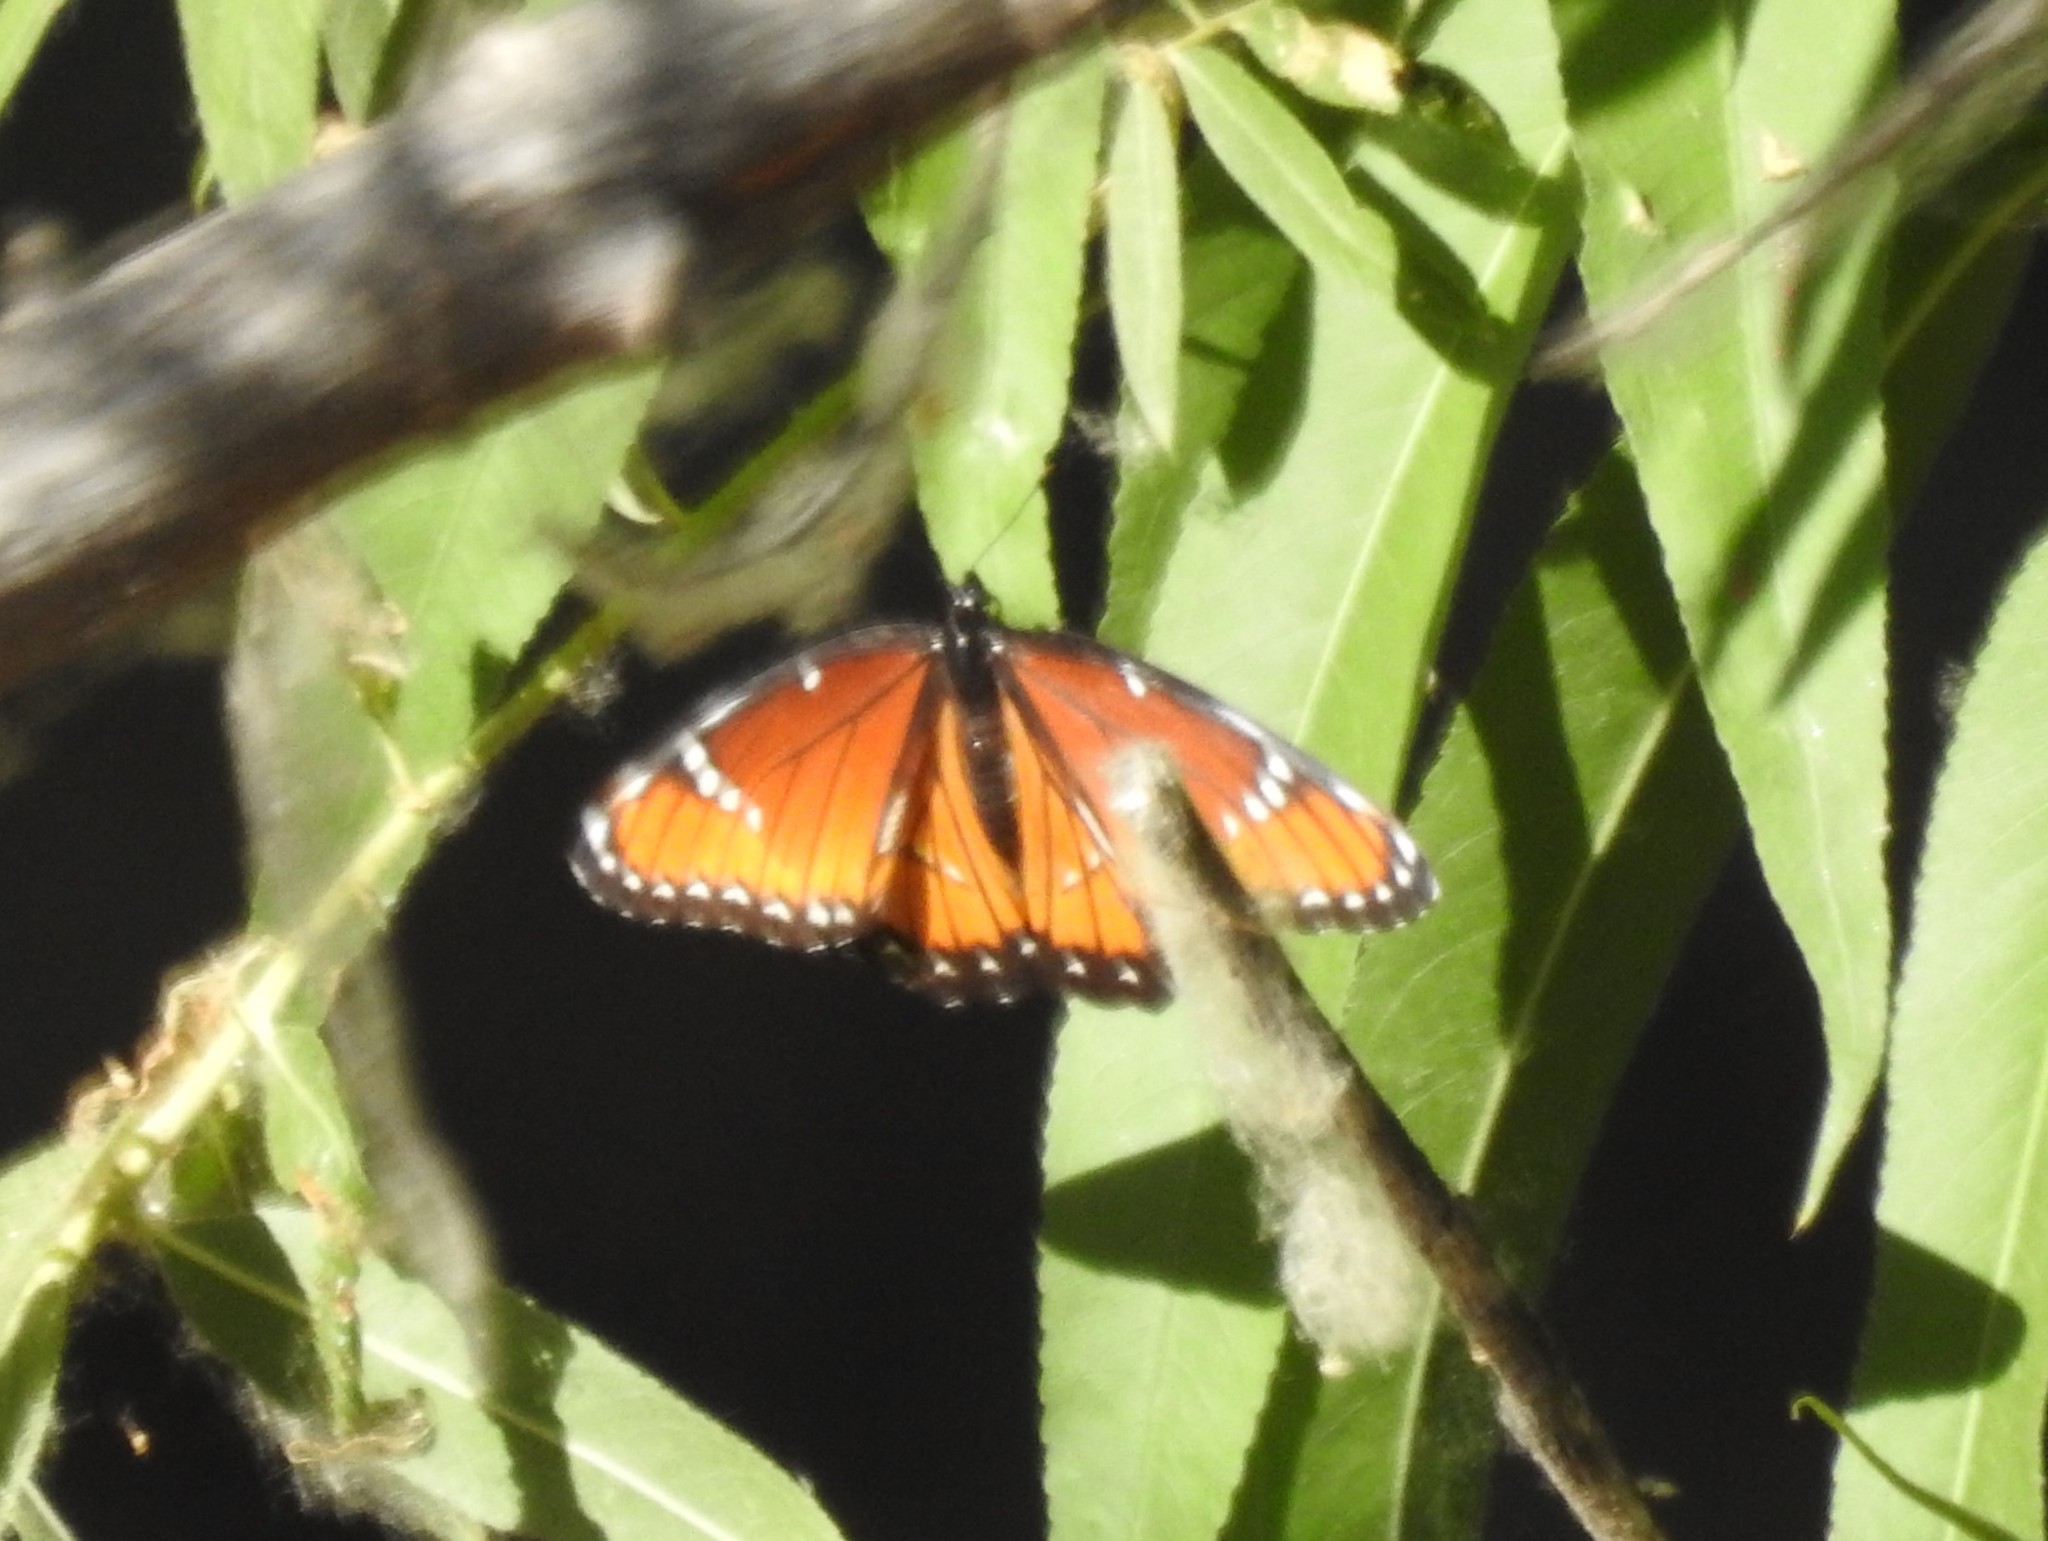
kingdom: Animalia
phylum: Arthropoda
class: Insecta
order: Lepidoptera
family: Nymphalidae
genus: Limenitis
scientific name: Limenitis archippus
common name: Viceroy
